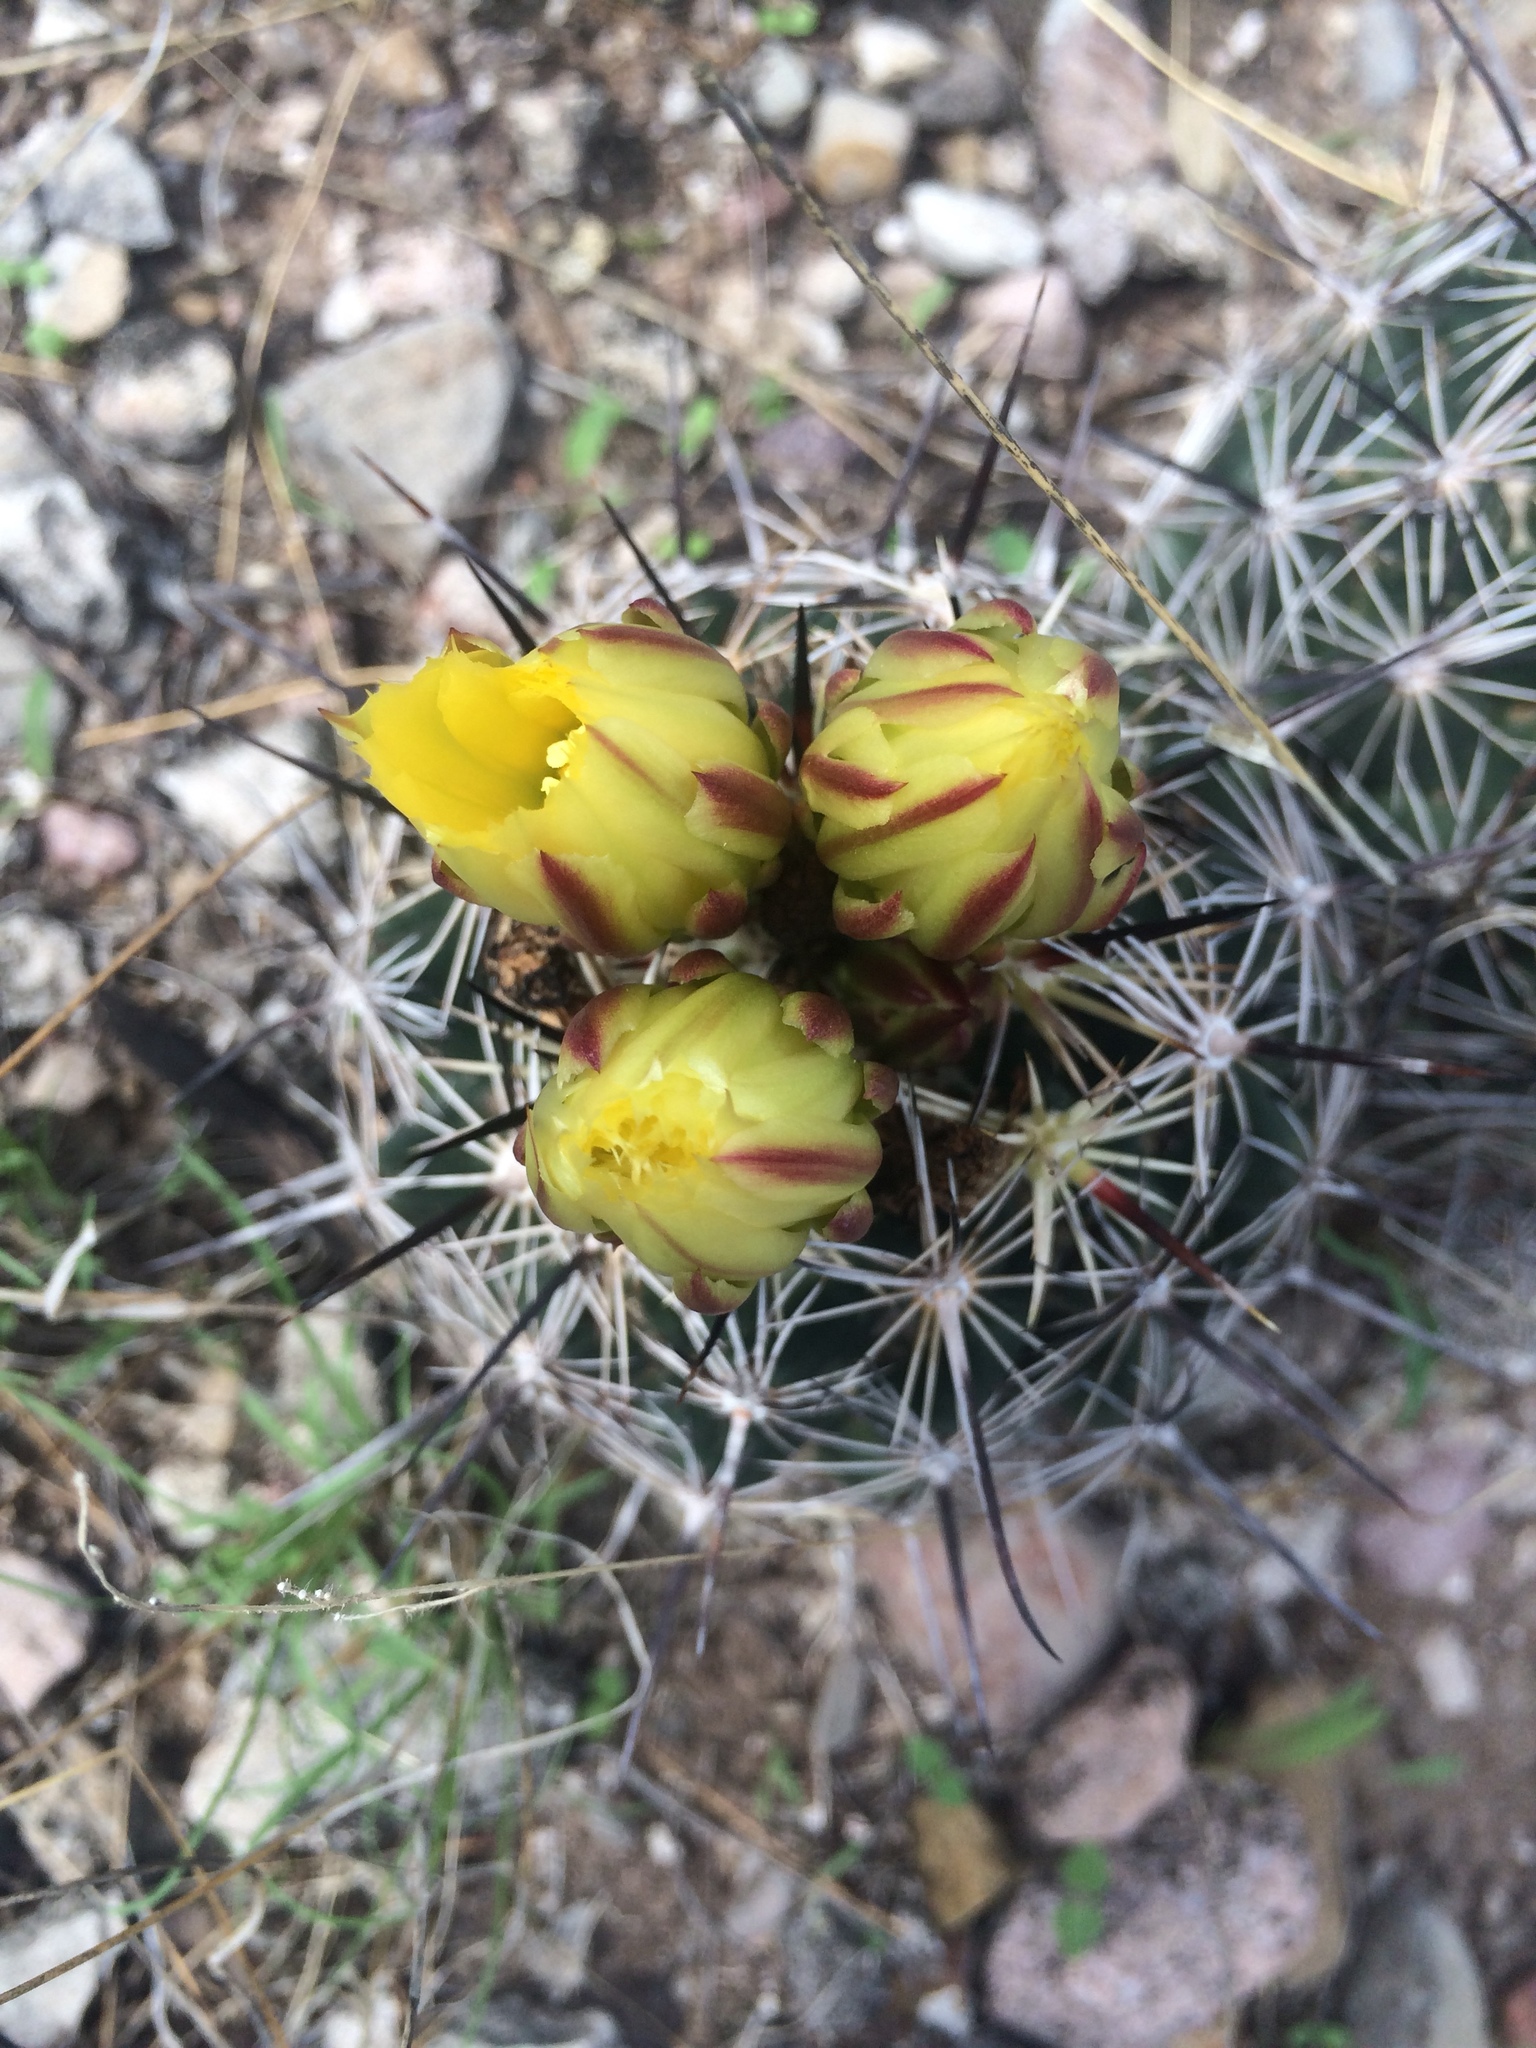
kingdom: Plantae
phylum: Tracheophyta
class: Magnoliopsida
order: Caryophyllales
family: Cactaceae
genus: Coryphantha
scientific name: Coryphantha delaetiana
